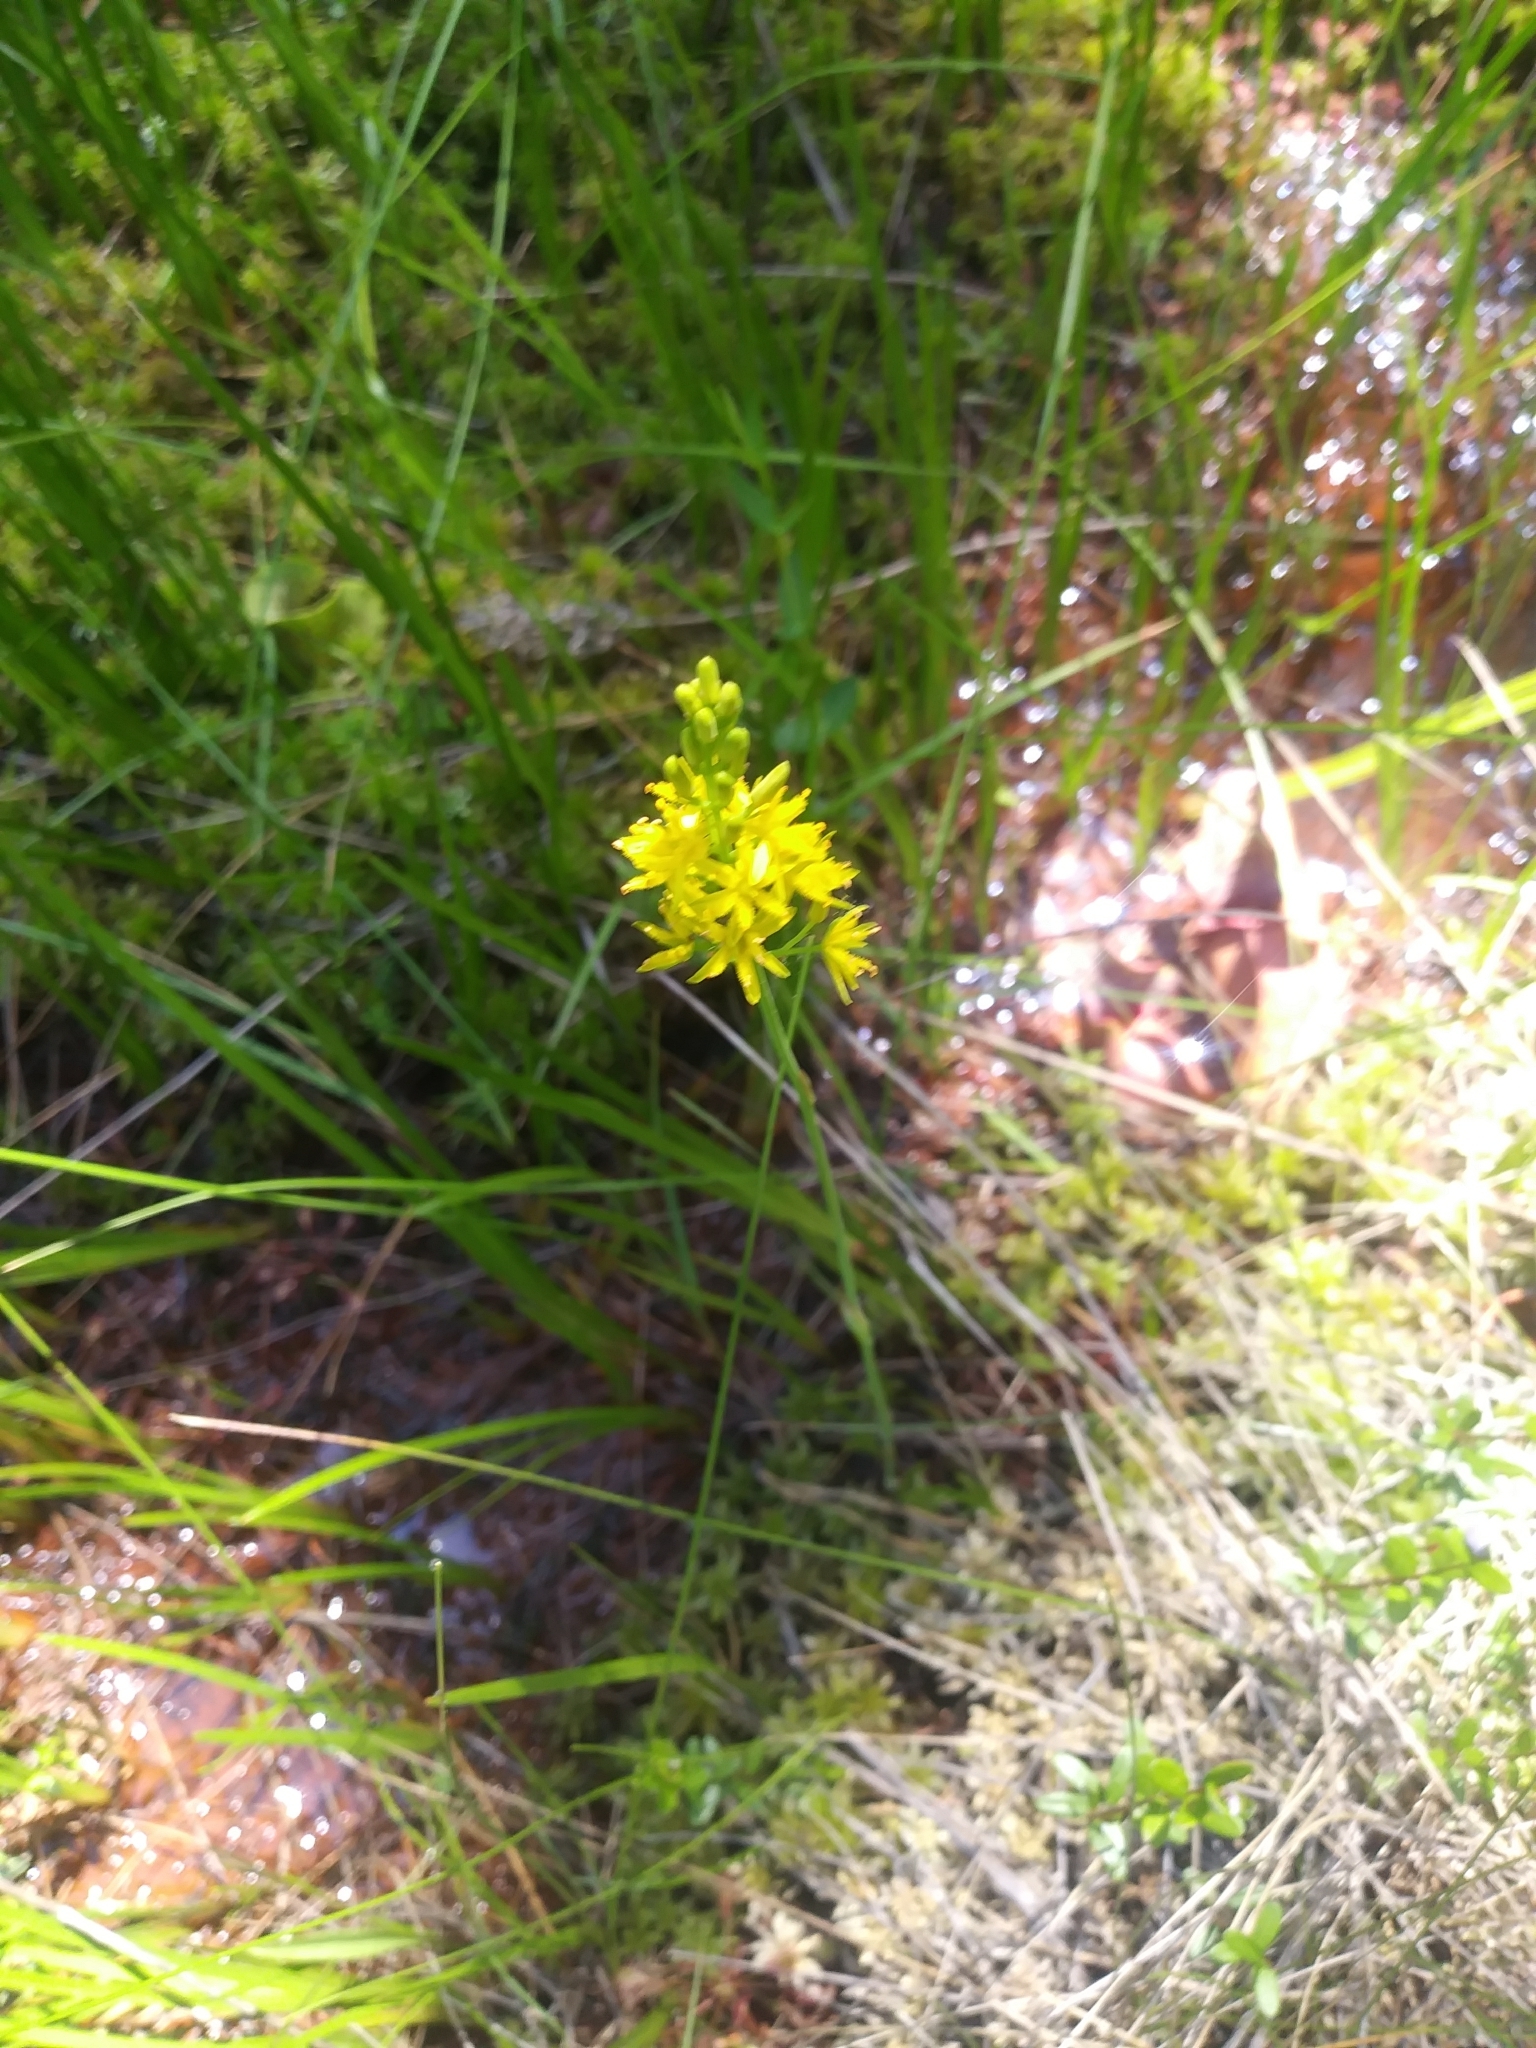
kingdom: Plantae
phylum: Tracheophyta
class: Liliopsida
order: Dioscoreales
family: Nartheciaceae
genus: Narthecium
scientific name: Narthecium americanum
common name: Bog-asphodel
